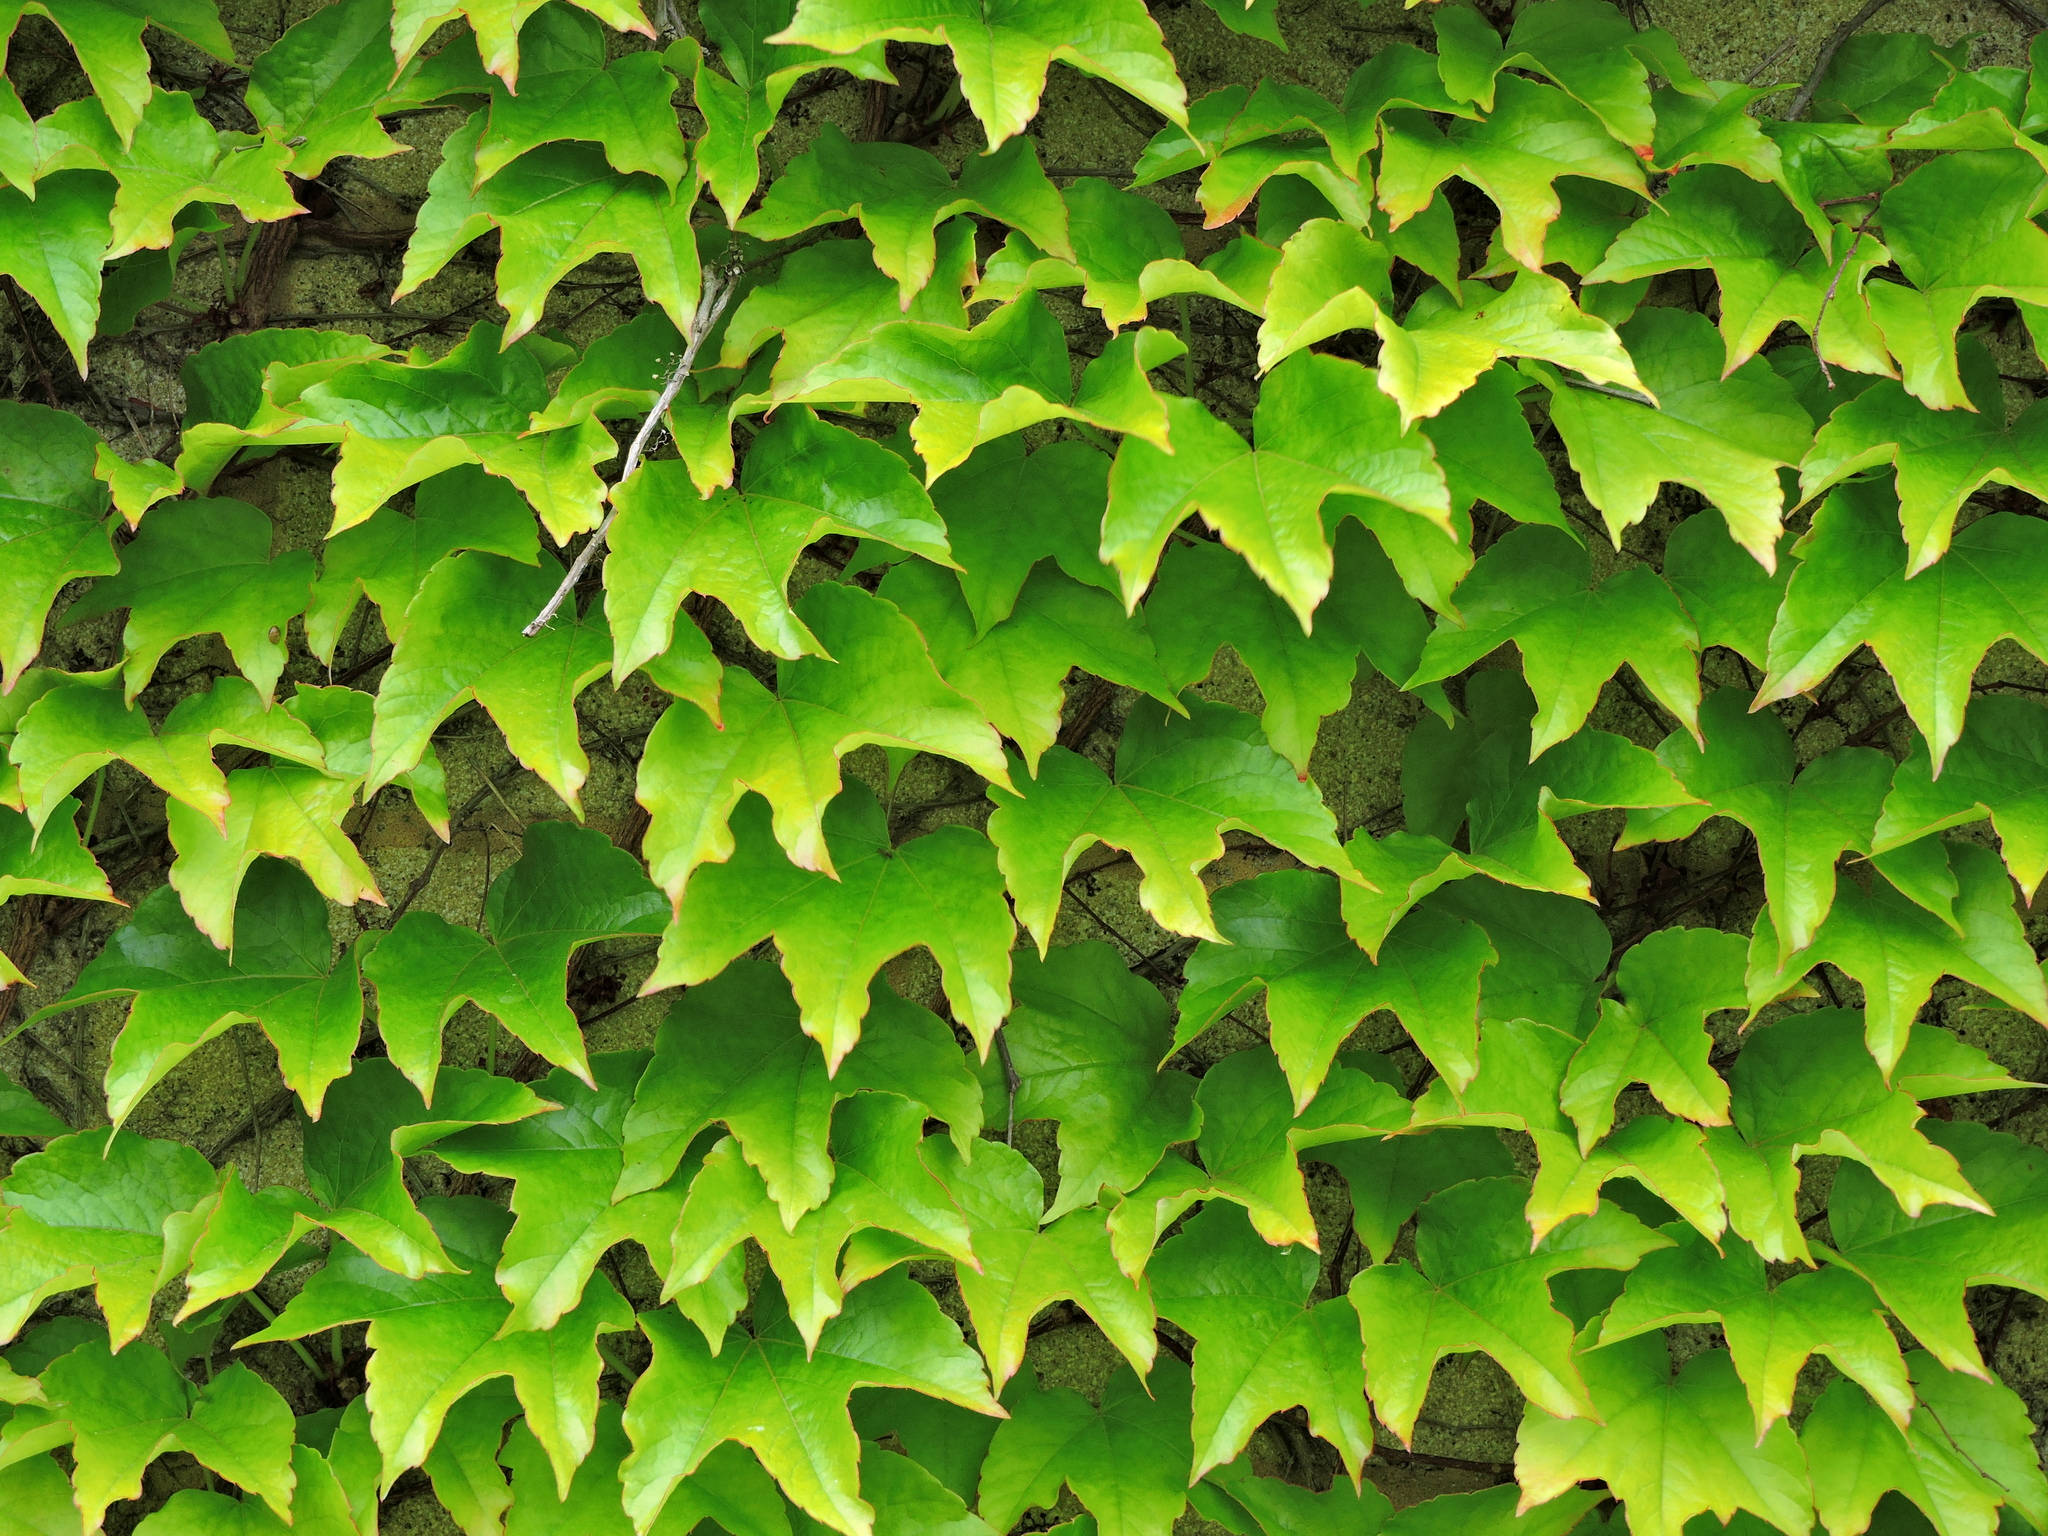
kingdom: Plantae
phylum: Tracheophyta
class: Magnoliopsida
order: Vitales
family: Vitaceae
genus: Parthenocissus
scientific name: Parthenocissus tricuspidata
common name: Boston ivy
